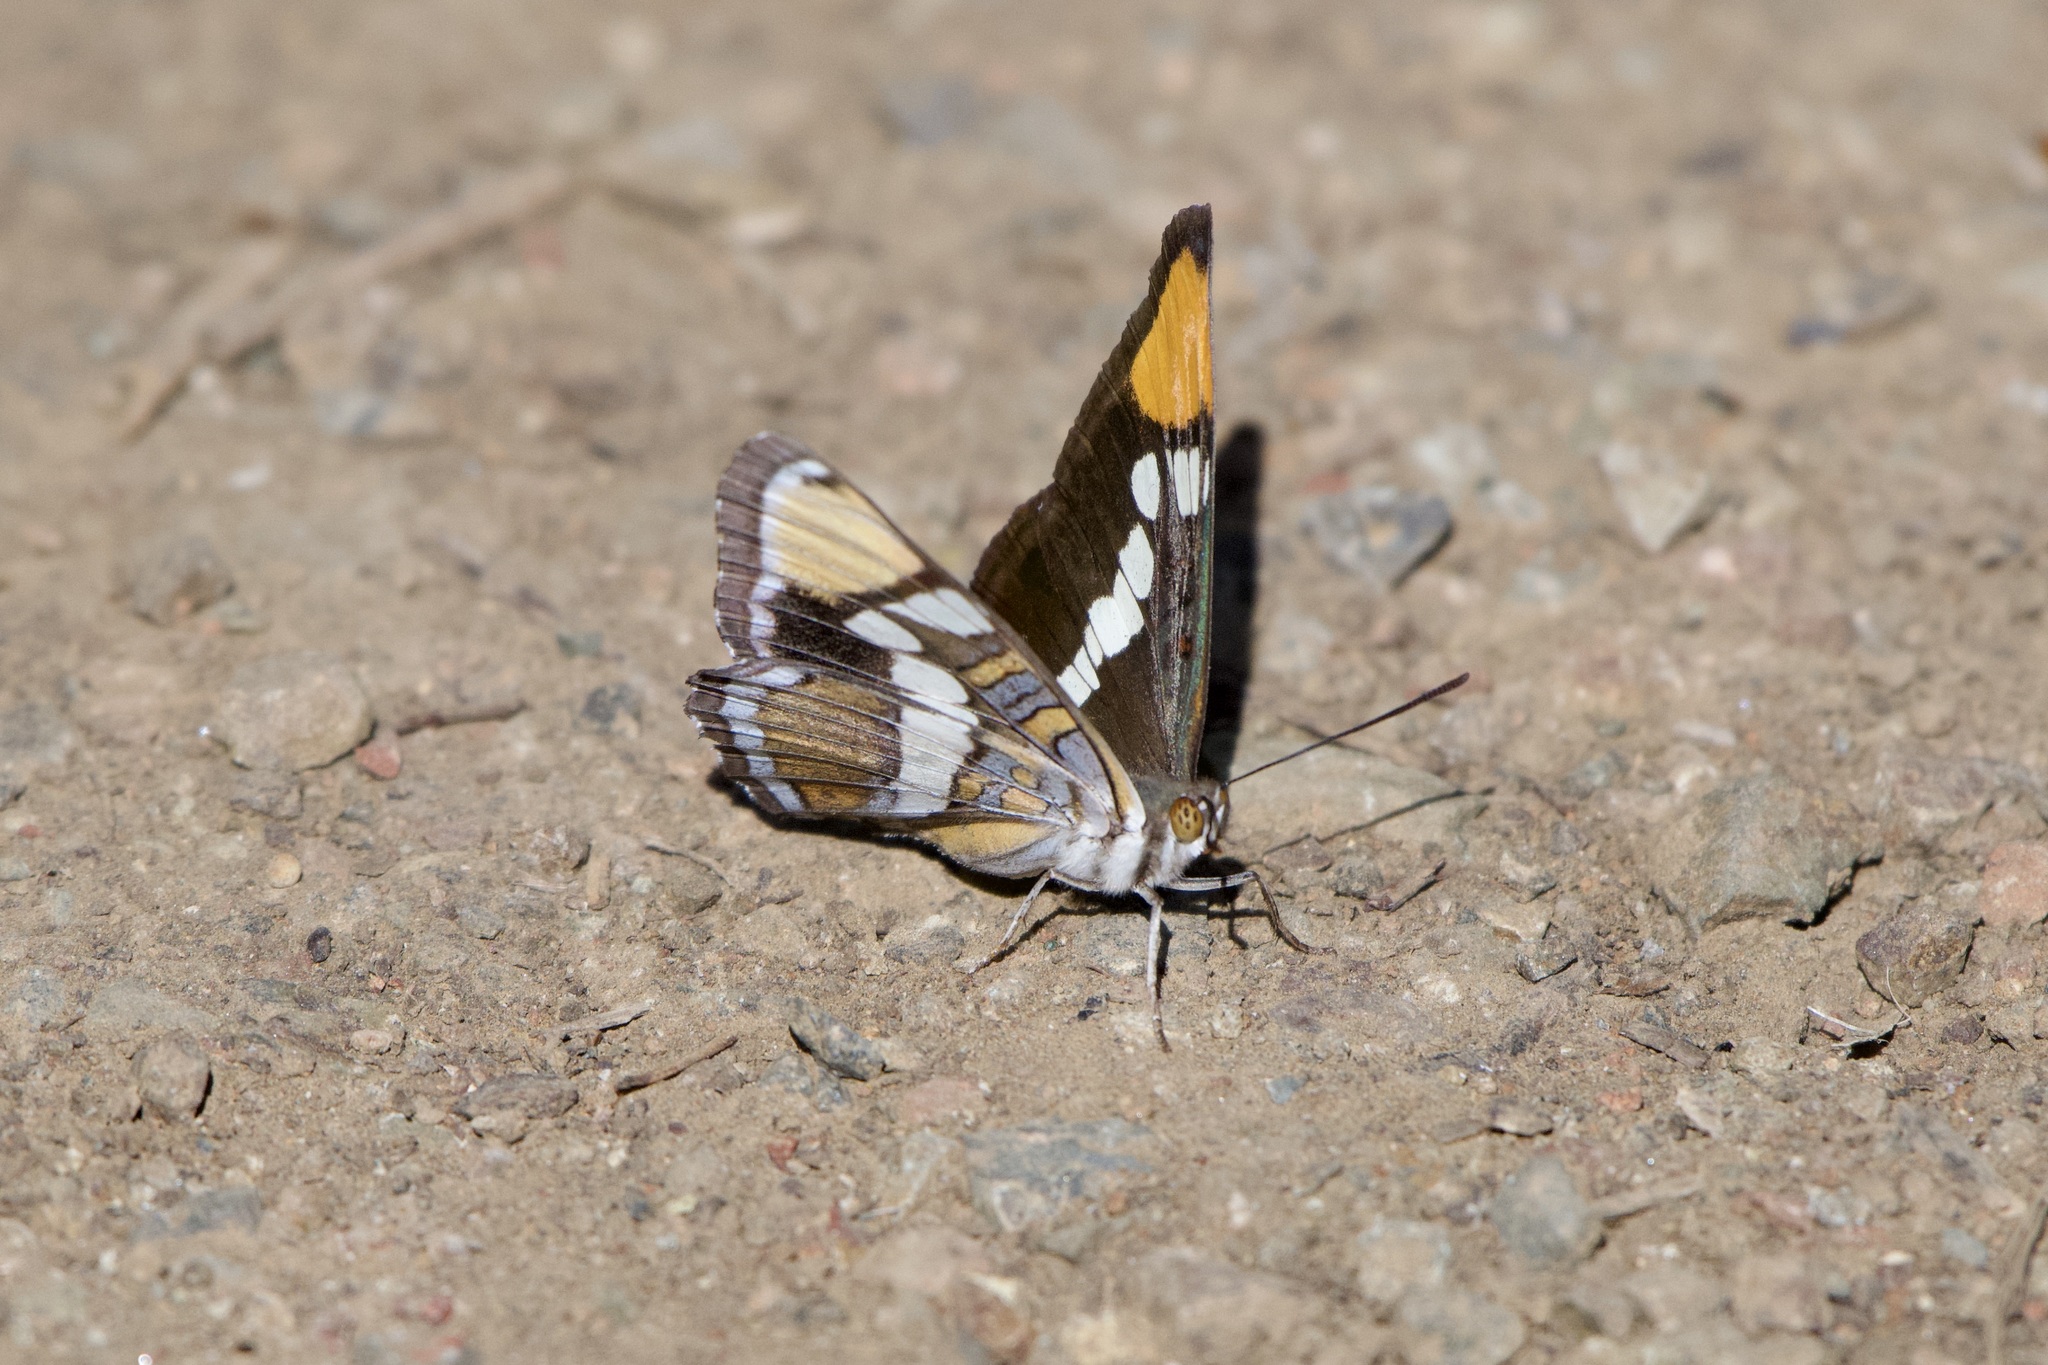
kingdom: Animalia
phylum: Arthropoda
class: Insecta
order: Lepidoptera
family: Nymphalidae
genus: Limenitis
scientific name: Limenitis bredowii
